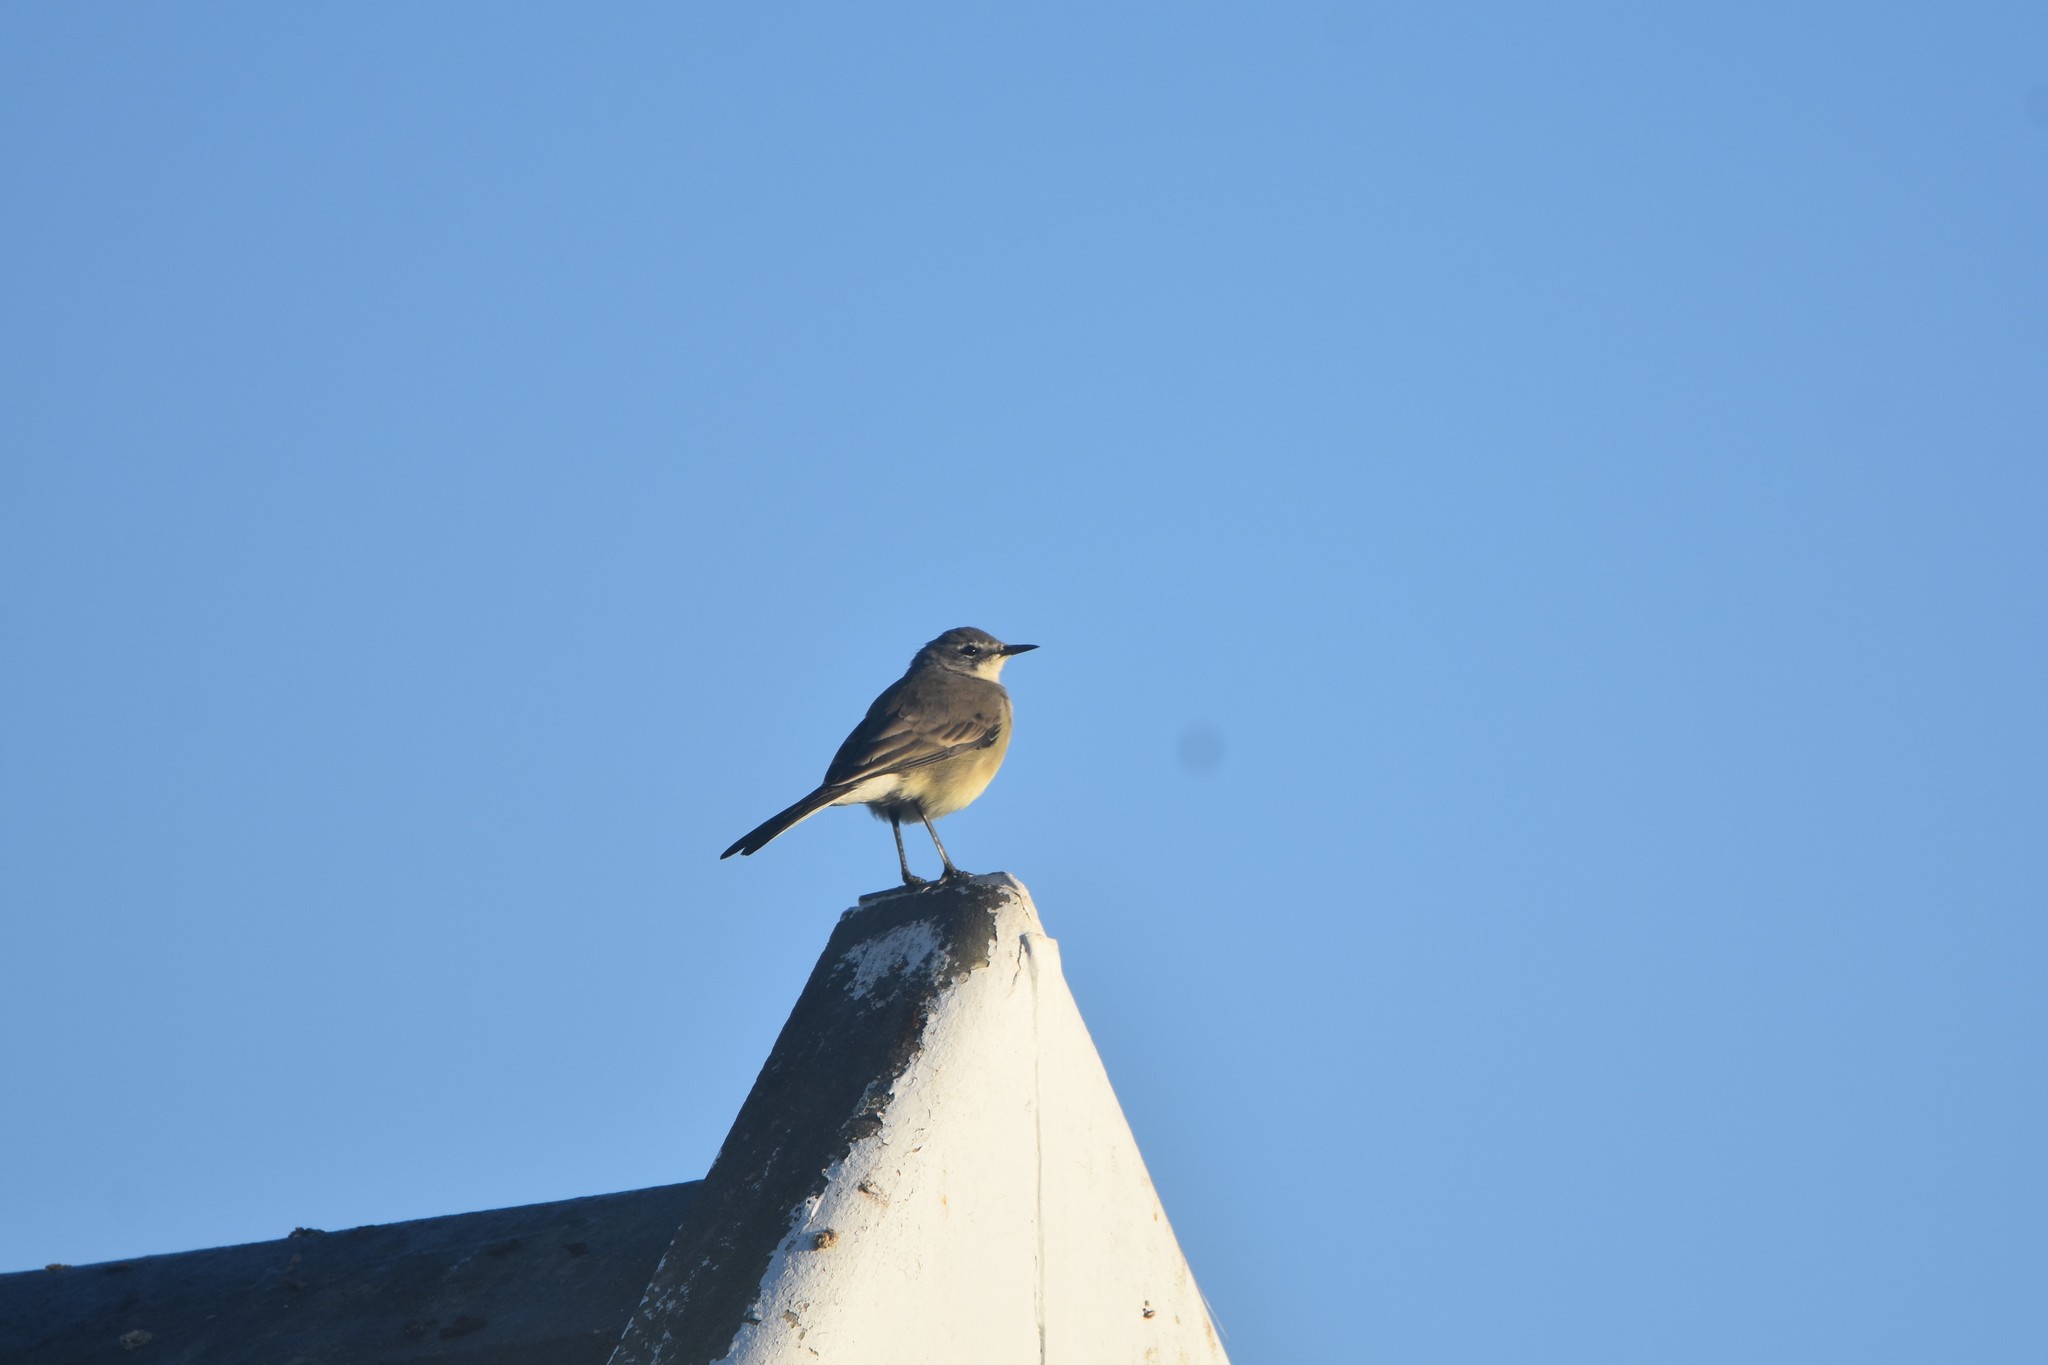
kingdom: Animalia
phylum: Chordata
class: Aves
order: Passeriformes
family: Motacillidae
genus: Motacilla
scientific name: Motacilla capensis
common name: Cape wagtail
